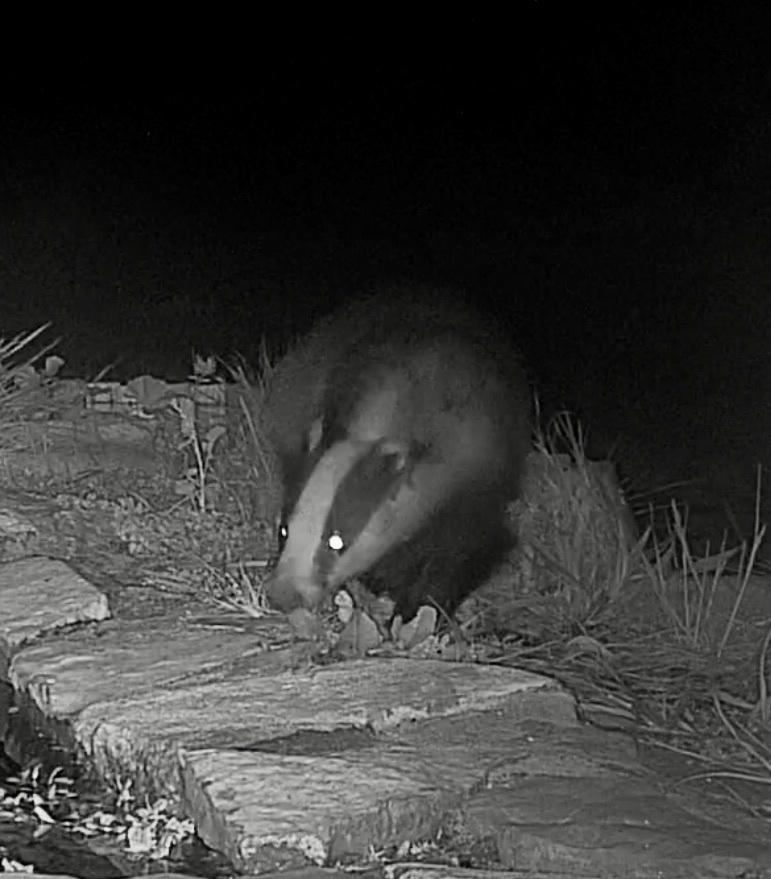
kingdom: Animalia
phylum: Chordata
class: Mammalia
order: Carnivora
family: Mustelidae
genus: Meles
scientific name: Meles meles
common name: Eurasian badger
